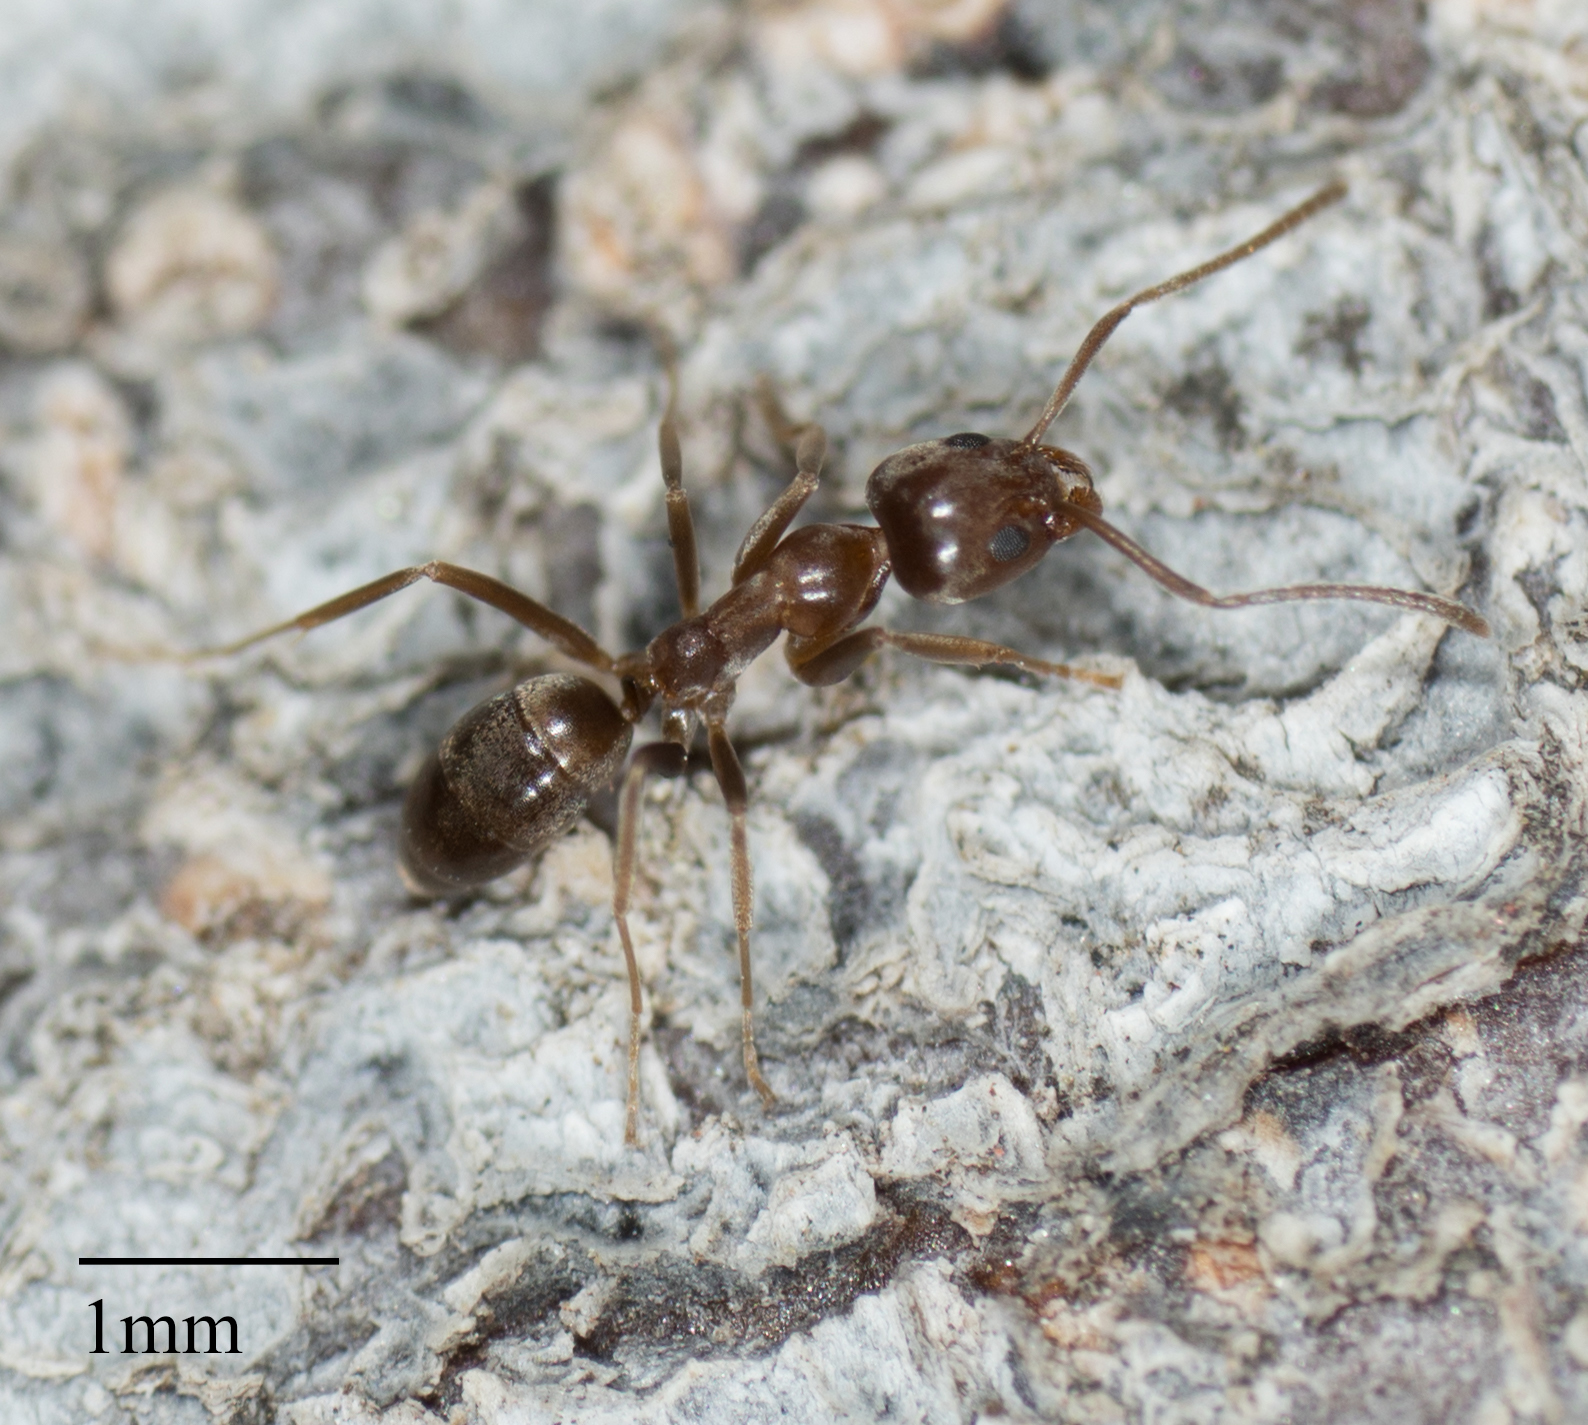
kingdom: Animalia
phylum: Arthropoda
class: Insecta
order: Hymenoptera
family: Formicidae
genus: Linepithema
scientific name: Linepithema humile
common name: Argentine ant
